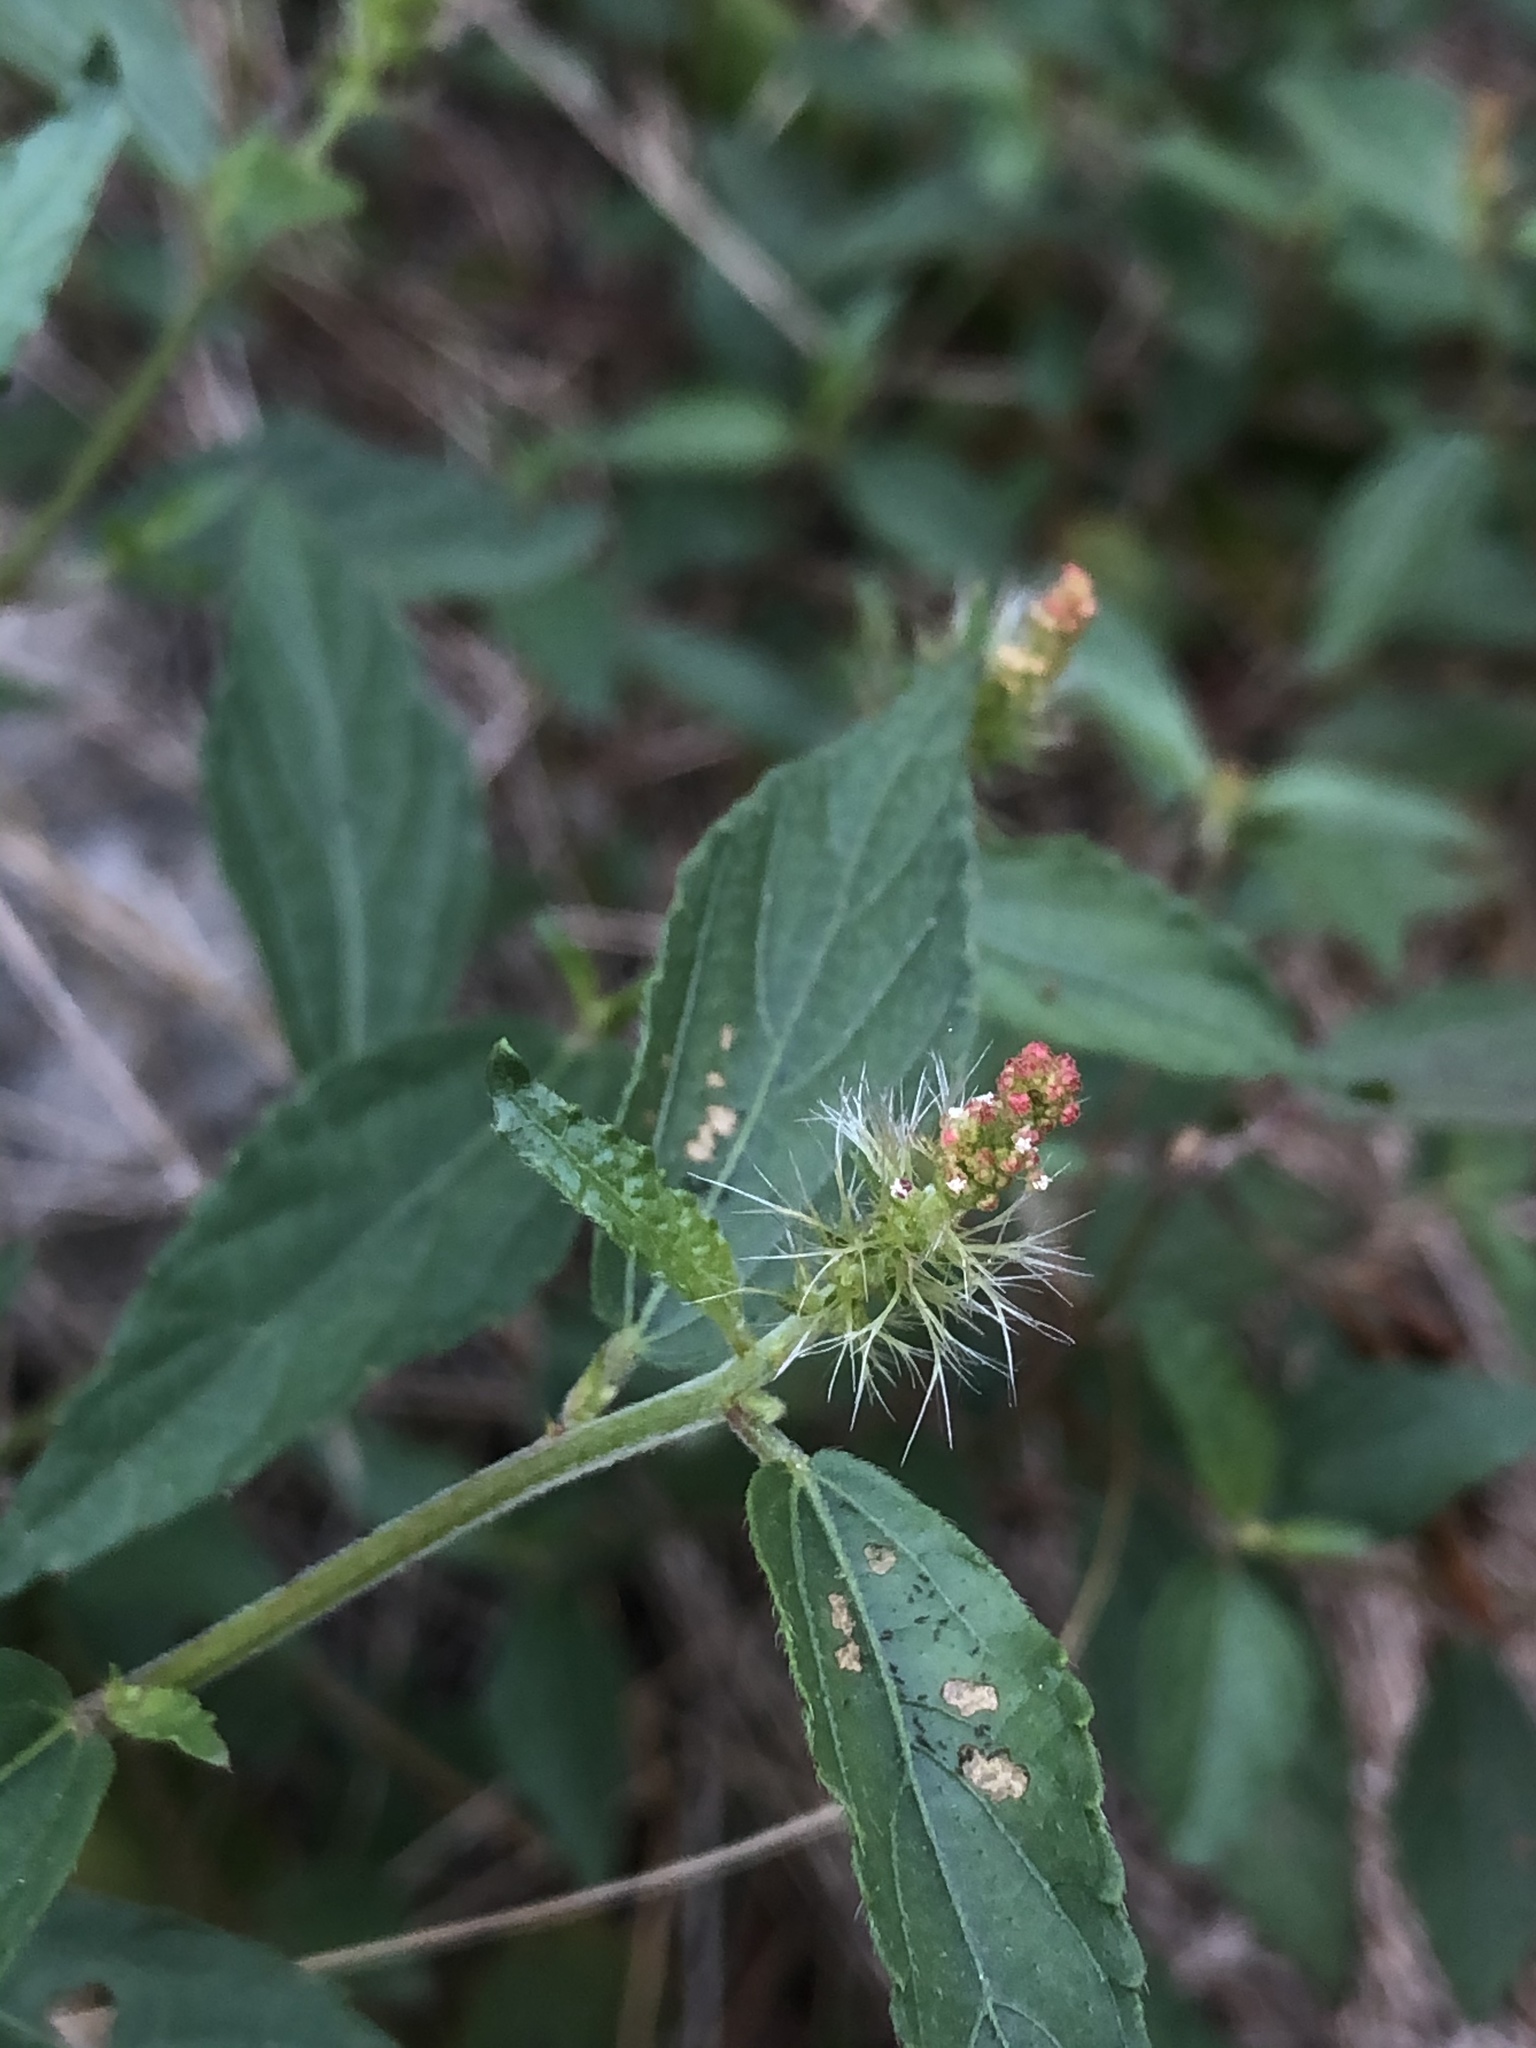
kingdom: Plantae
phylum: Tracheophyta
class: Magnoliopsida
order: Malpighiales
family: Euphorbiaceae
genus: Acalypha
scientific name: Acalypha phleoides
